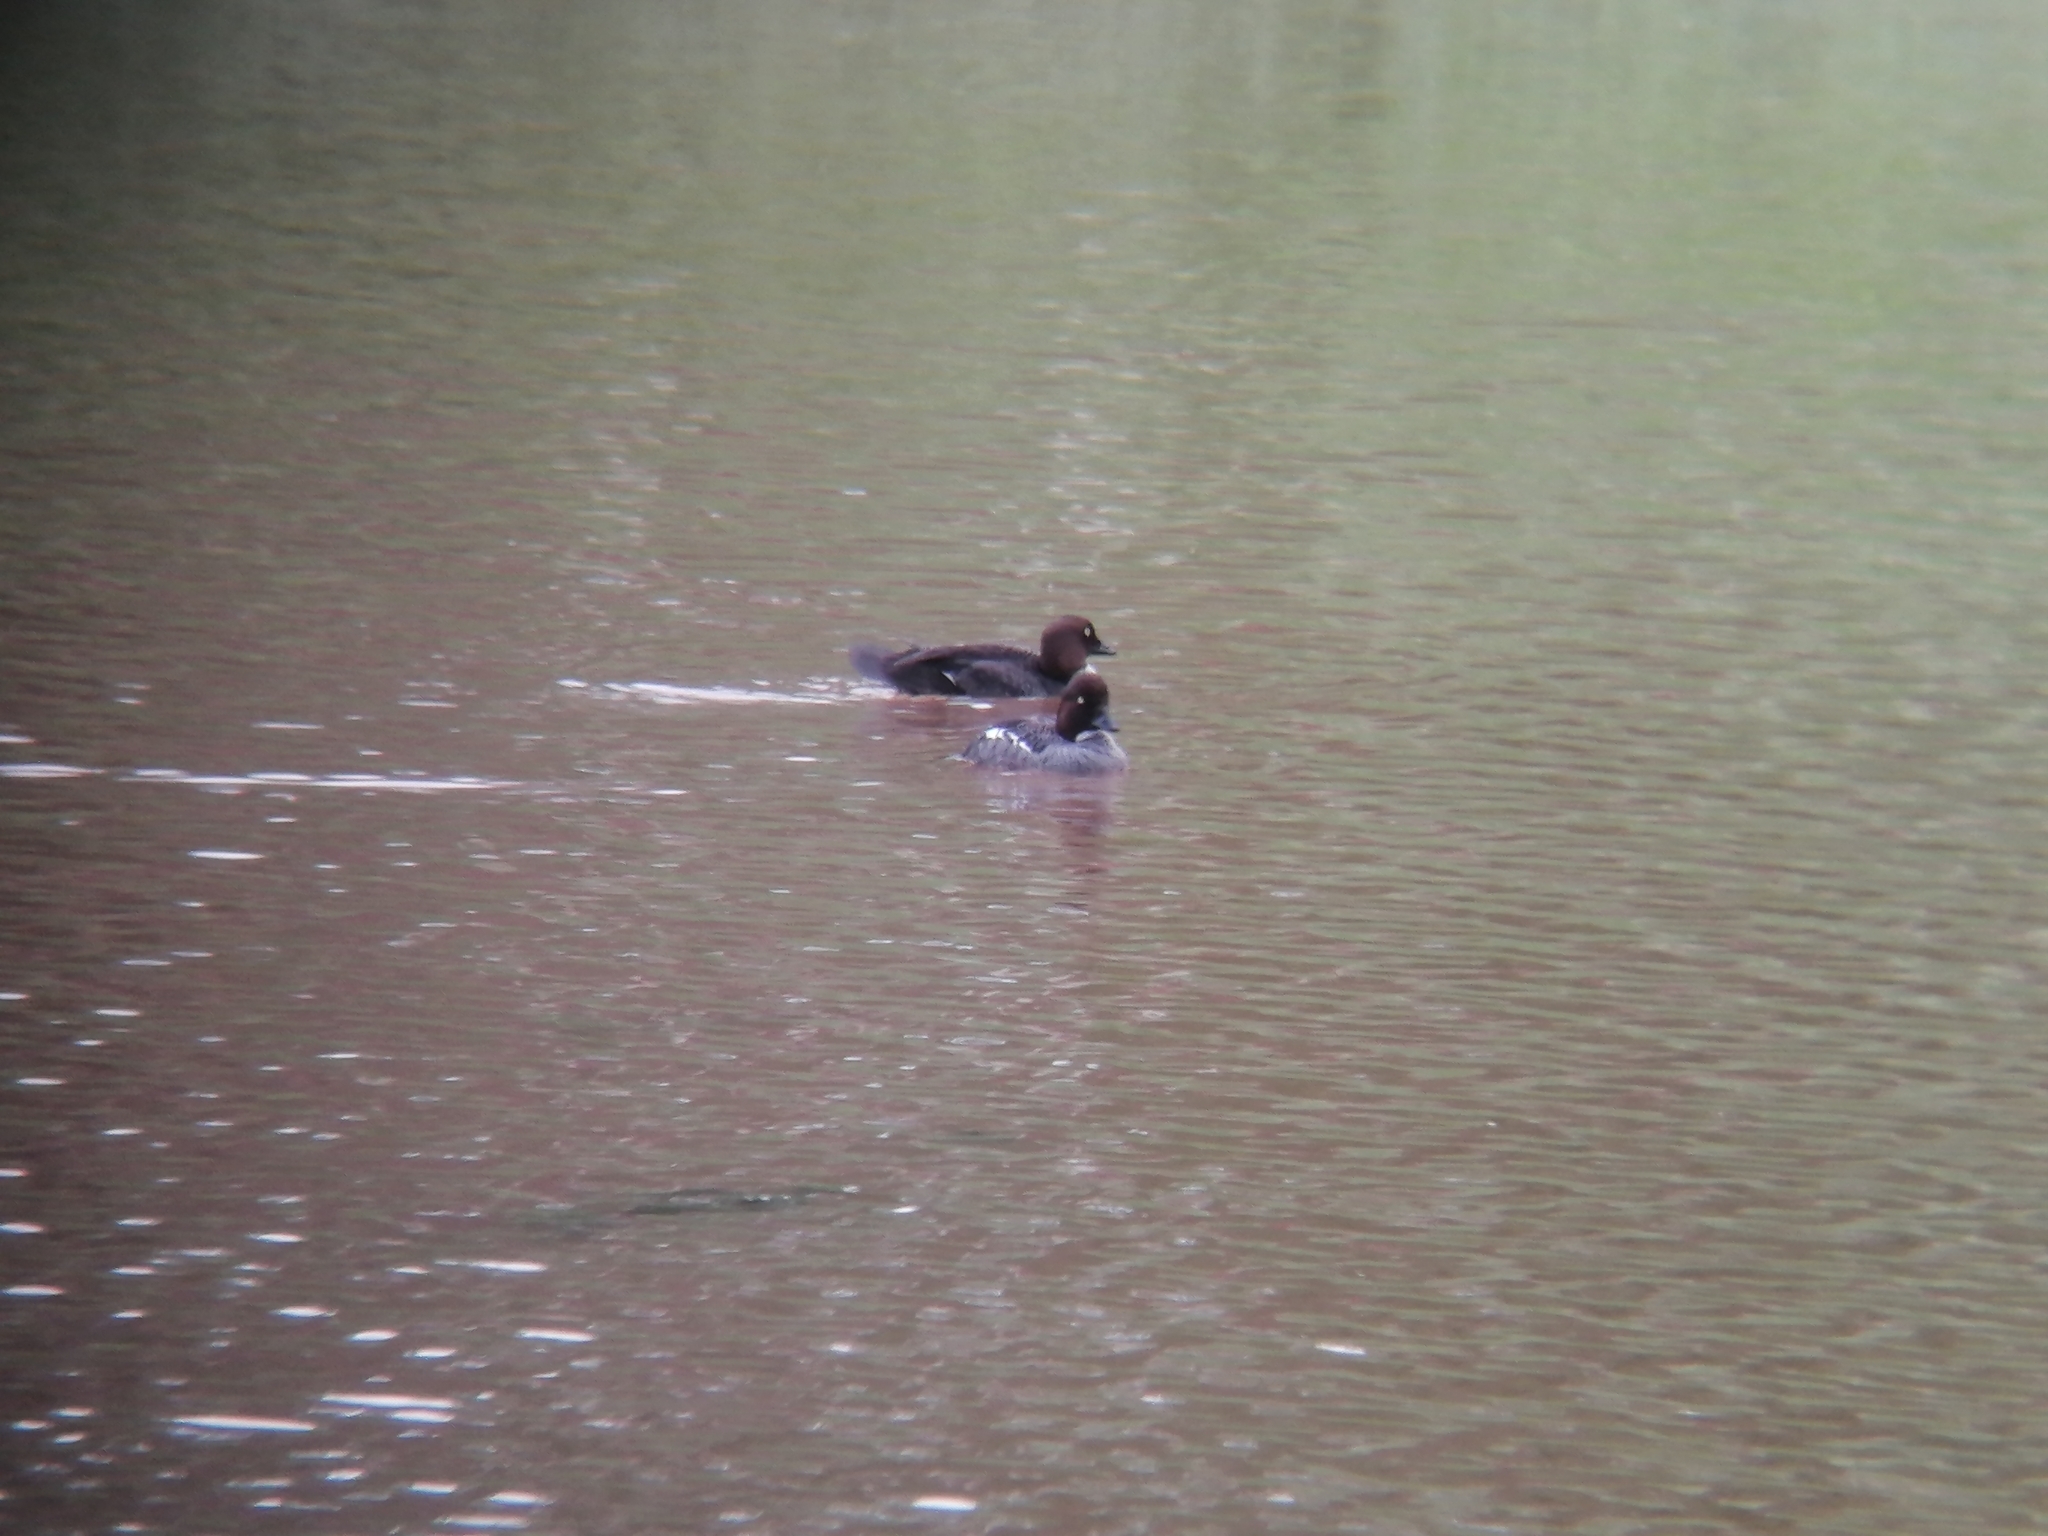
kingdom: Animalia
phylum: Chordata
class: Aves
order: Anseriformes
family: Anatidae
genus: Bucephala
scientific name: Bucephala clangula
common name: Common goldeneye
